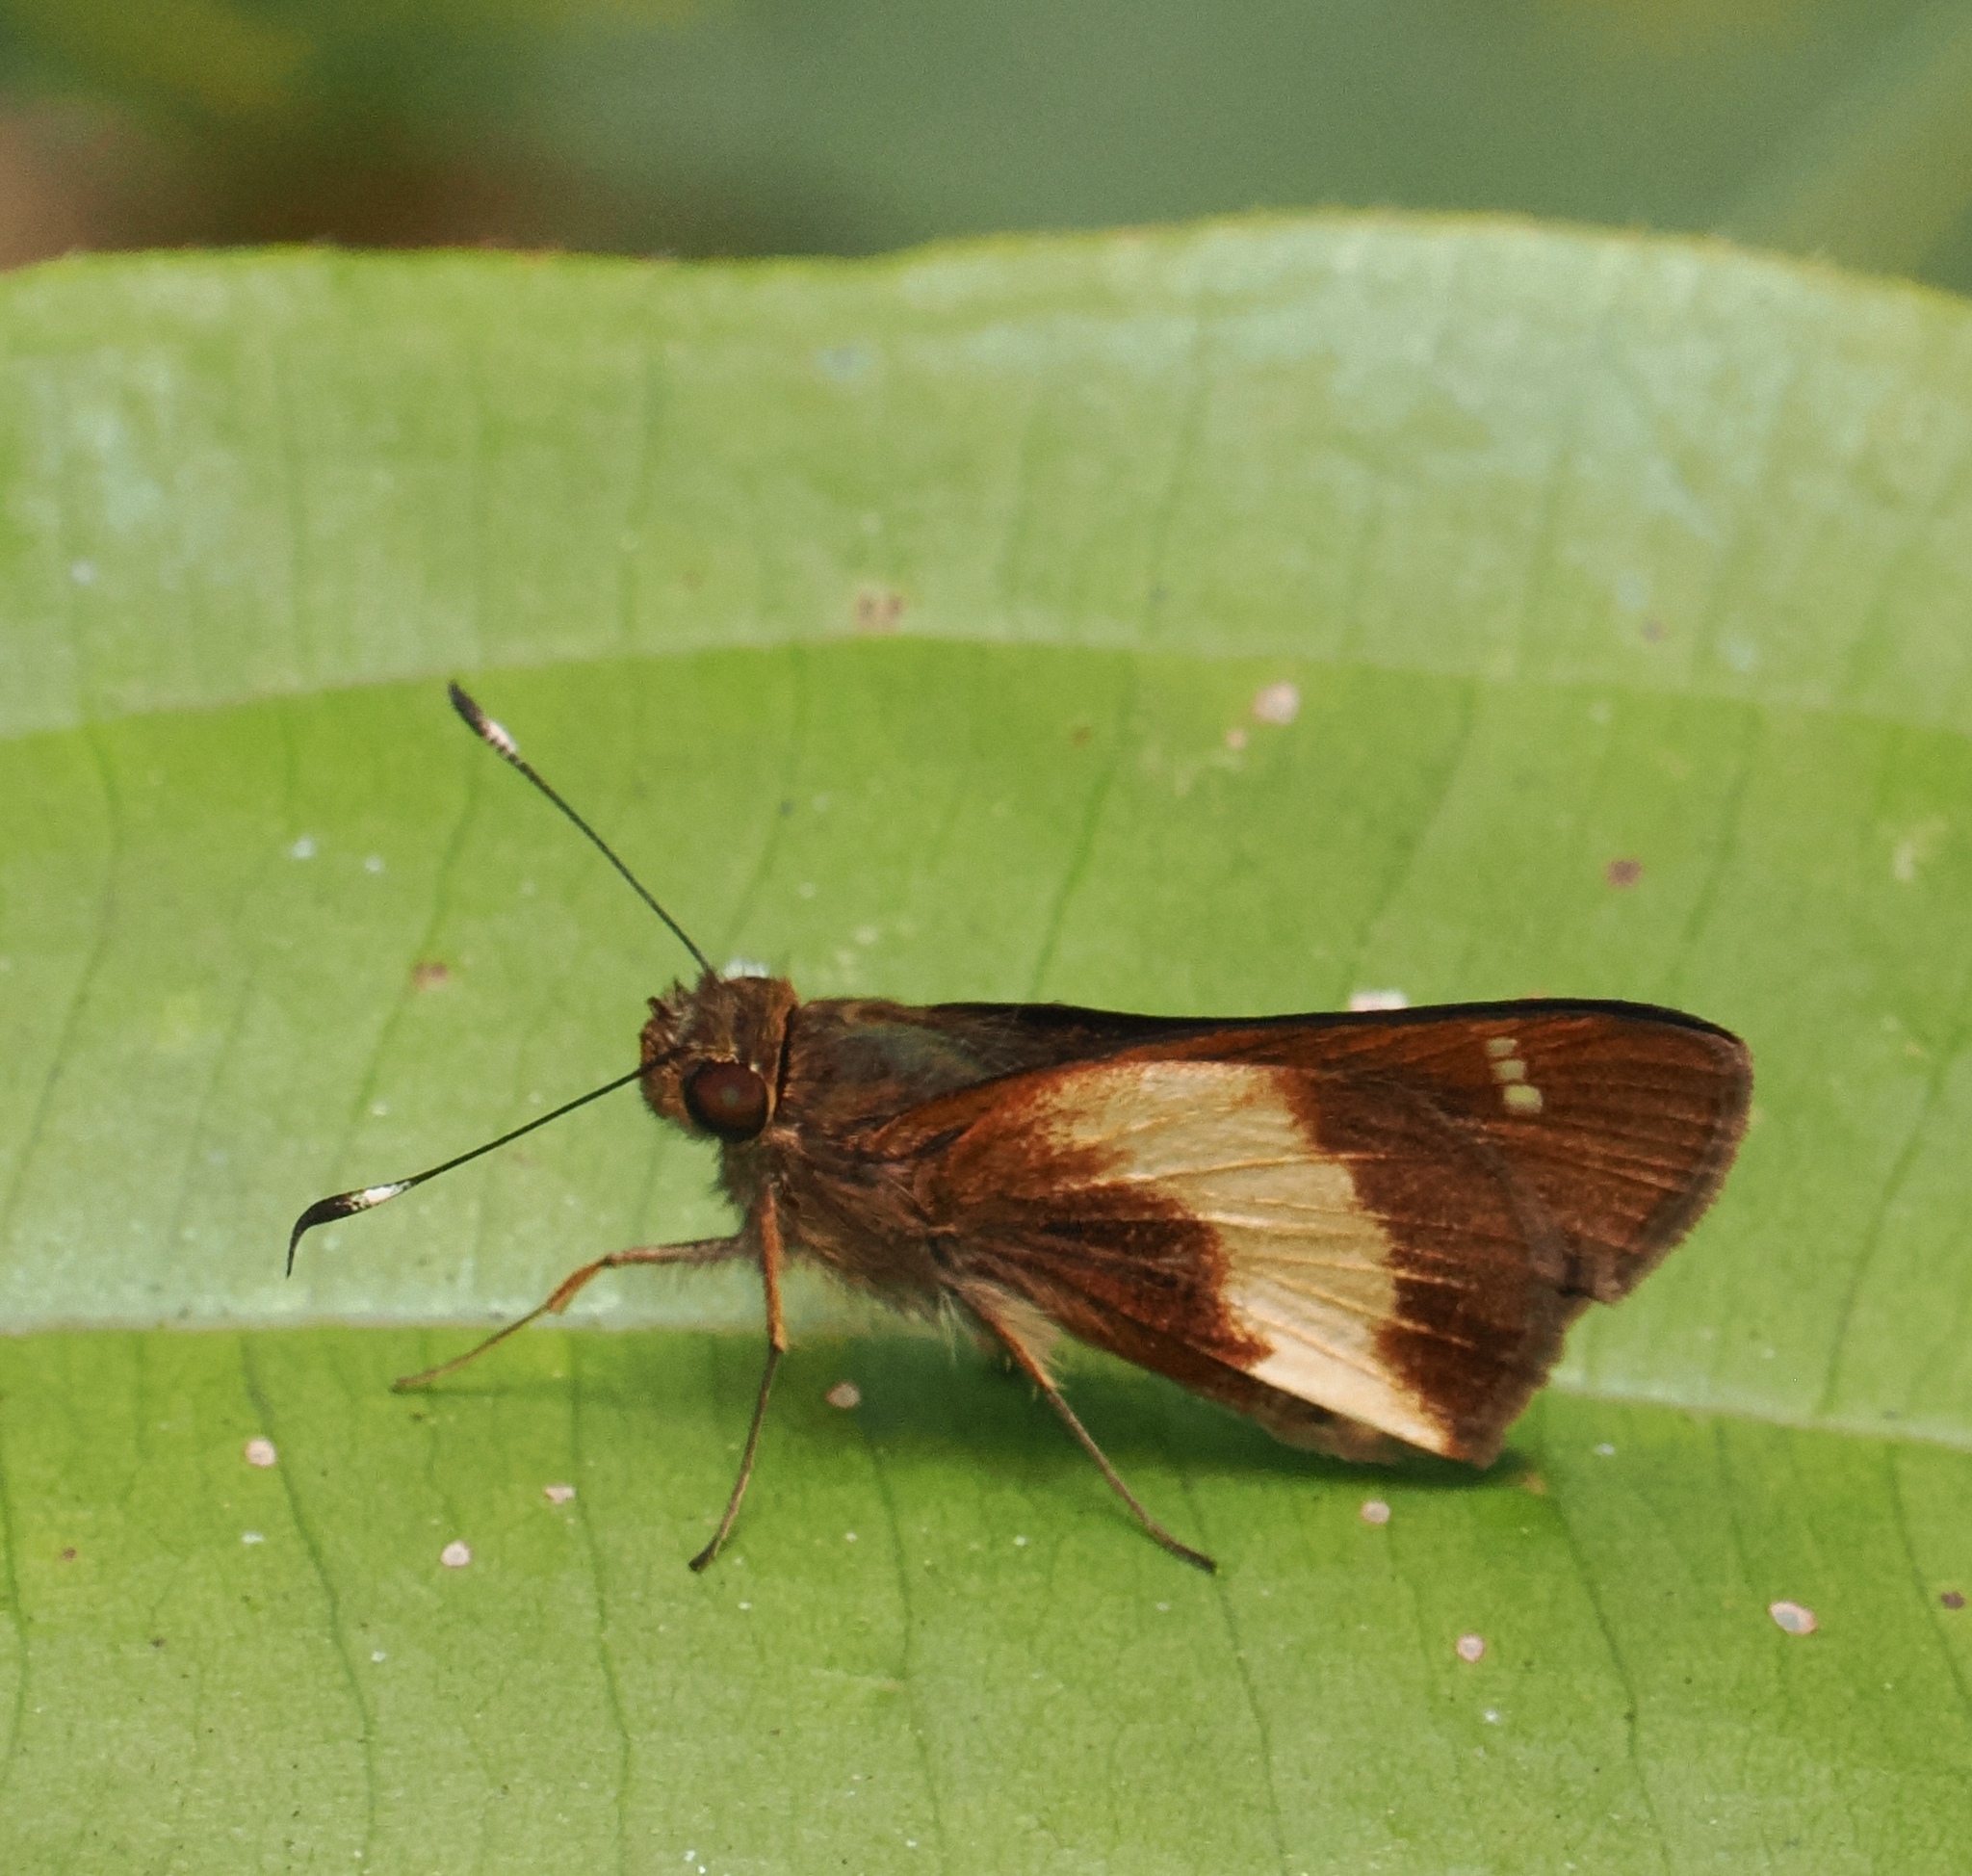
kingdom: Animalia
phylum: Arthropoda
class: Insecta
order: Lepidoptera
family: Hesperiidae
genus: Vettius
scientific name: Vettius ploetzii
